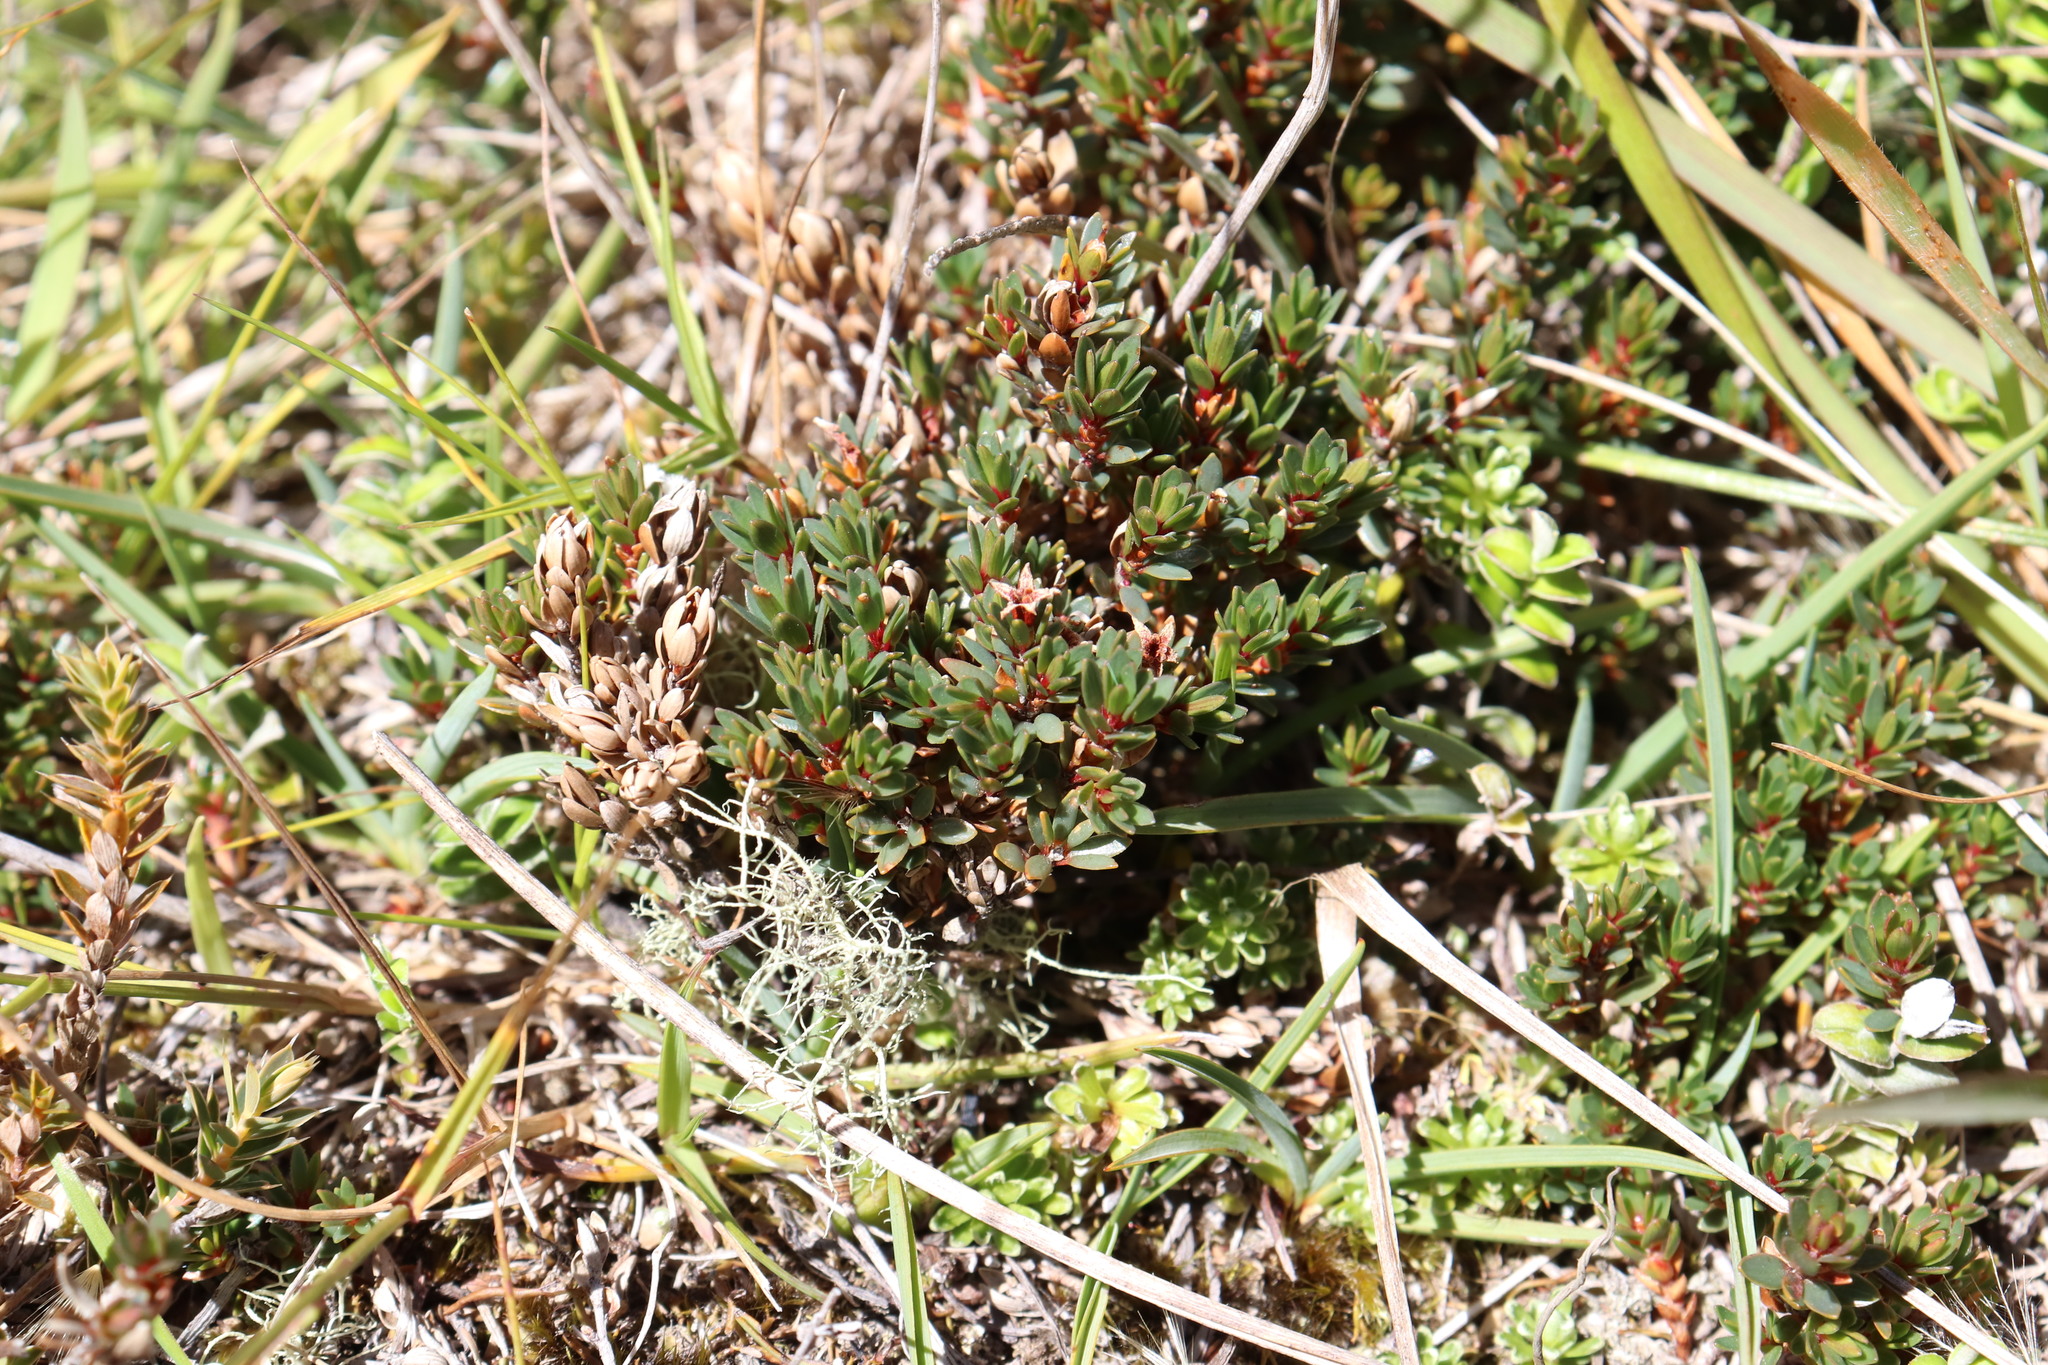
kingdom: Plantae
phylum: Tracheophyta
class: Magnoliopsida
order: Ericales
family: Ericaceae
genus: Pentachondra
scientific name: Pentachondra pumila
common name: Carpet-heath
